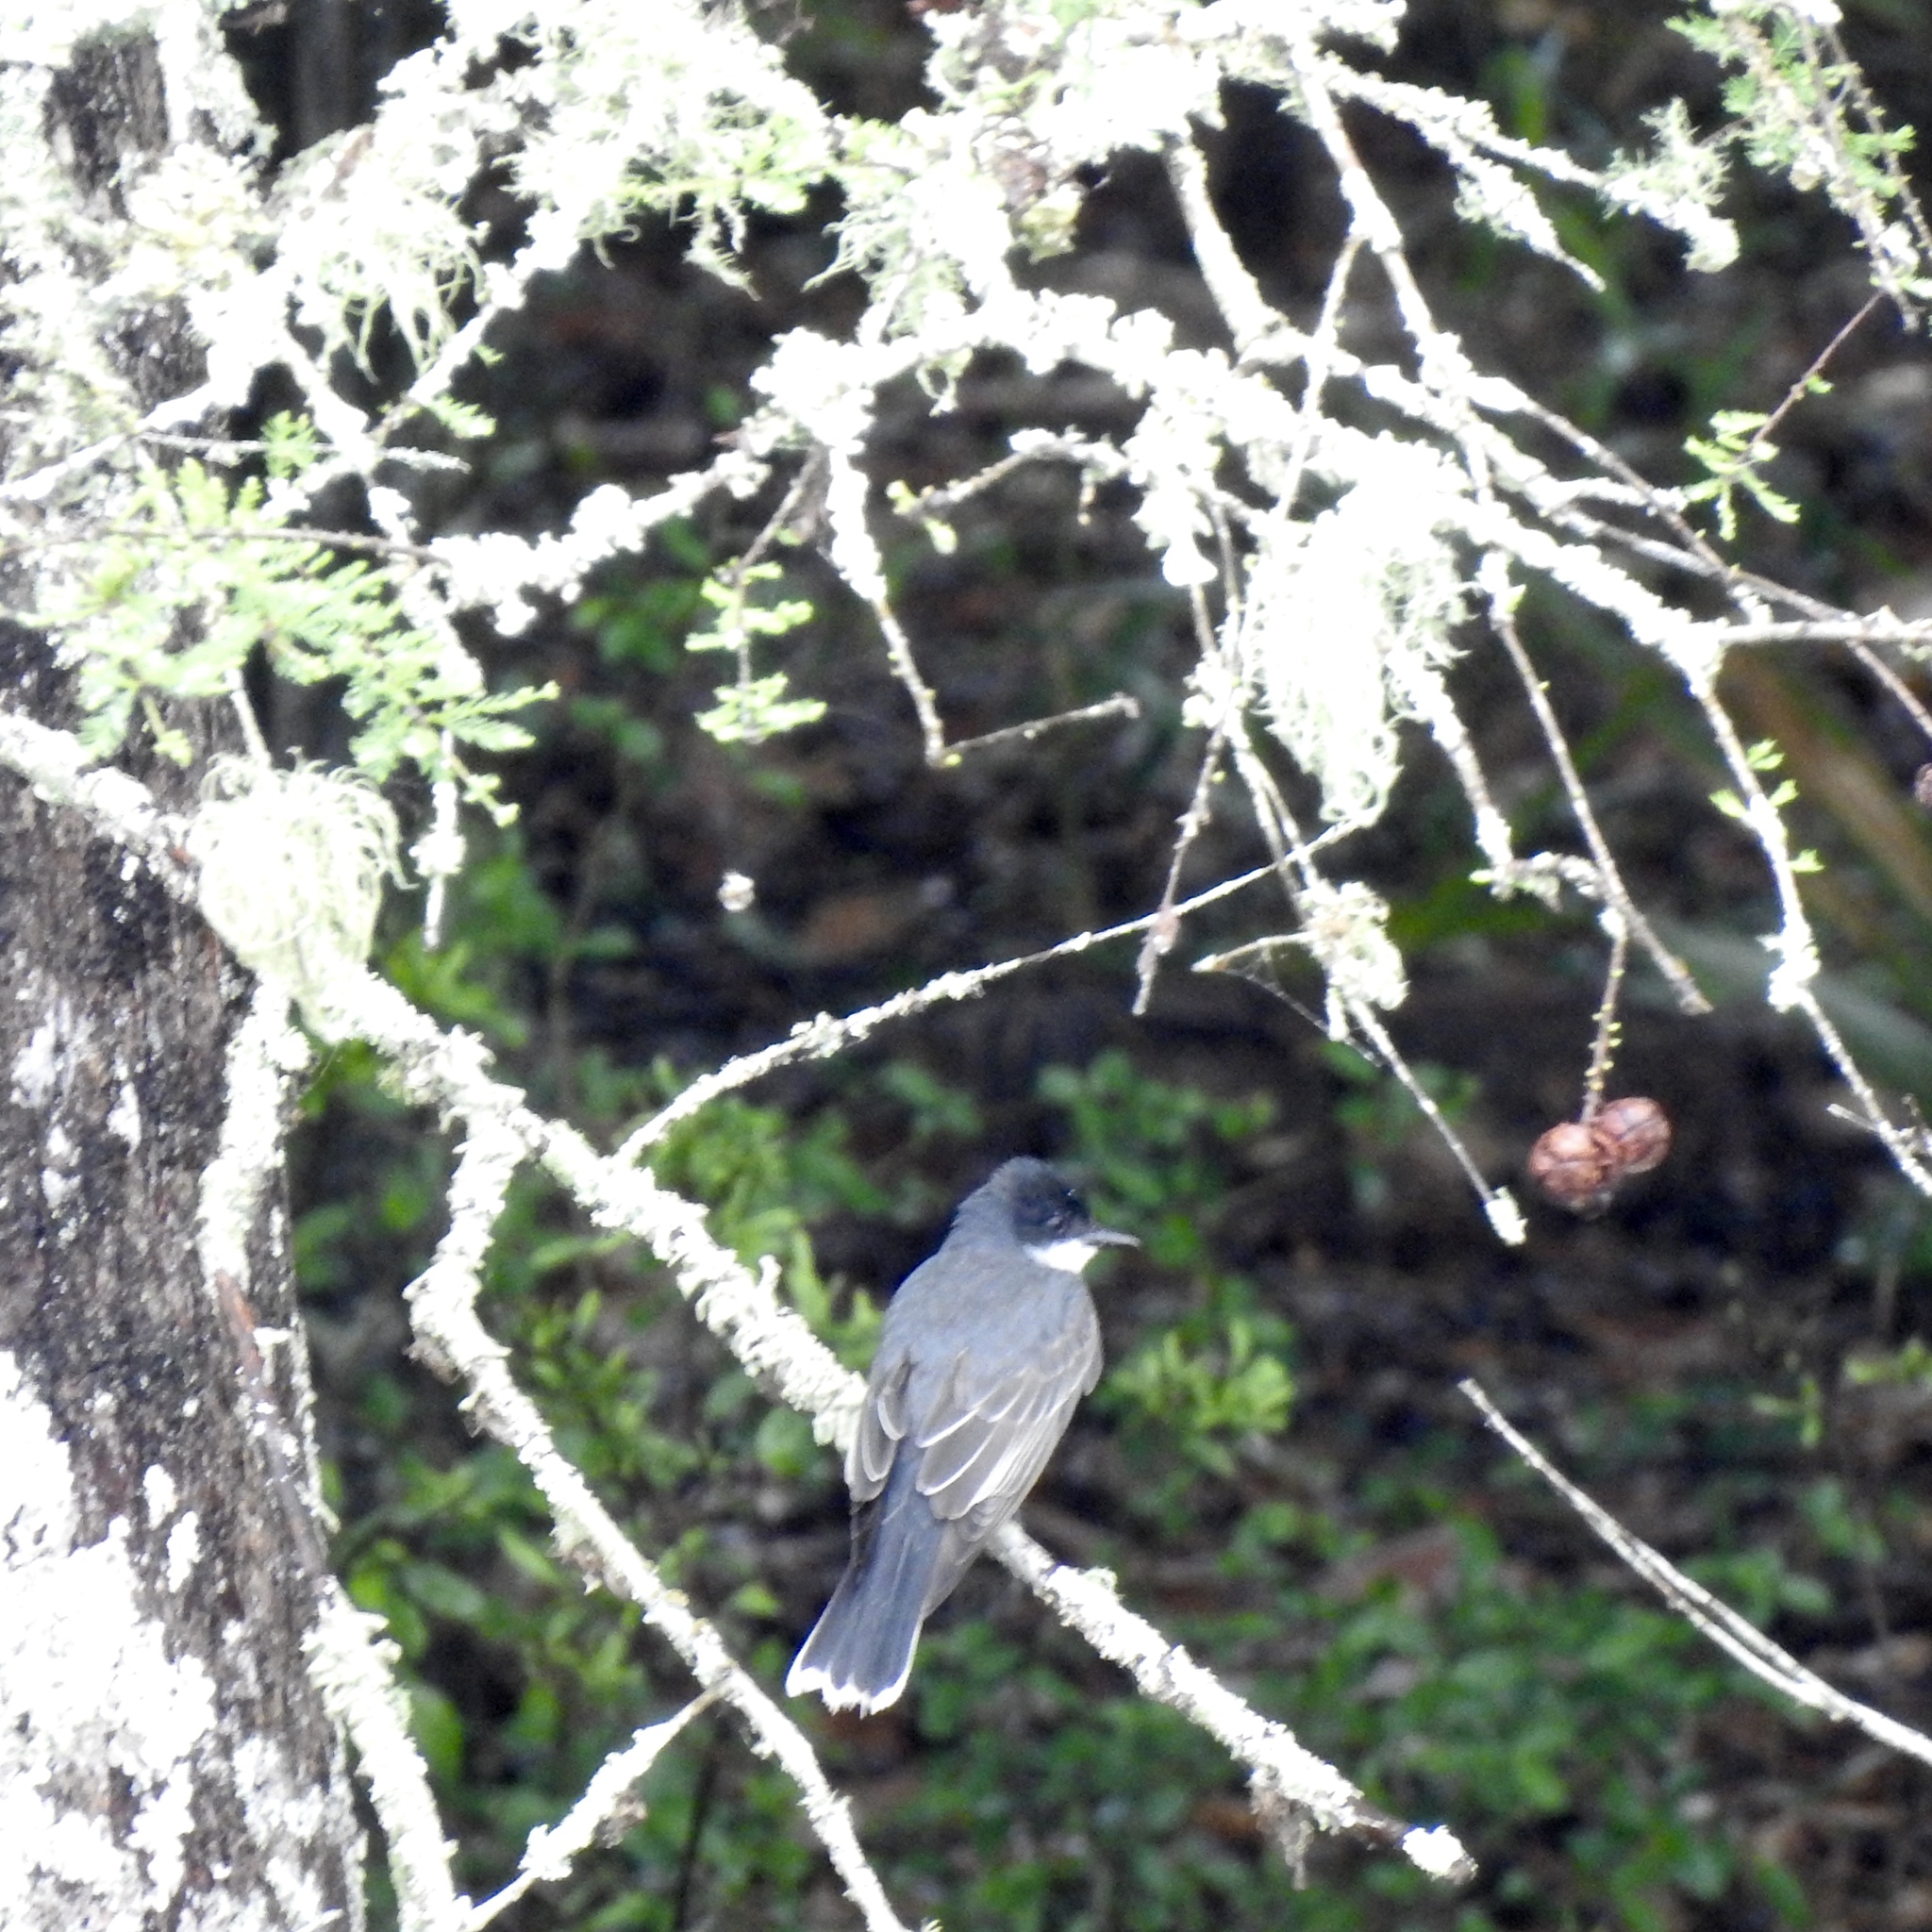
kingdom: Animalia
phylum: Chordata
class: Aves
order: Passeriformes
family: Tyrannidae
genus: Tyrannus
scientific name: Tyrannus tyrannus
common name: Eastern kingbird
